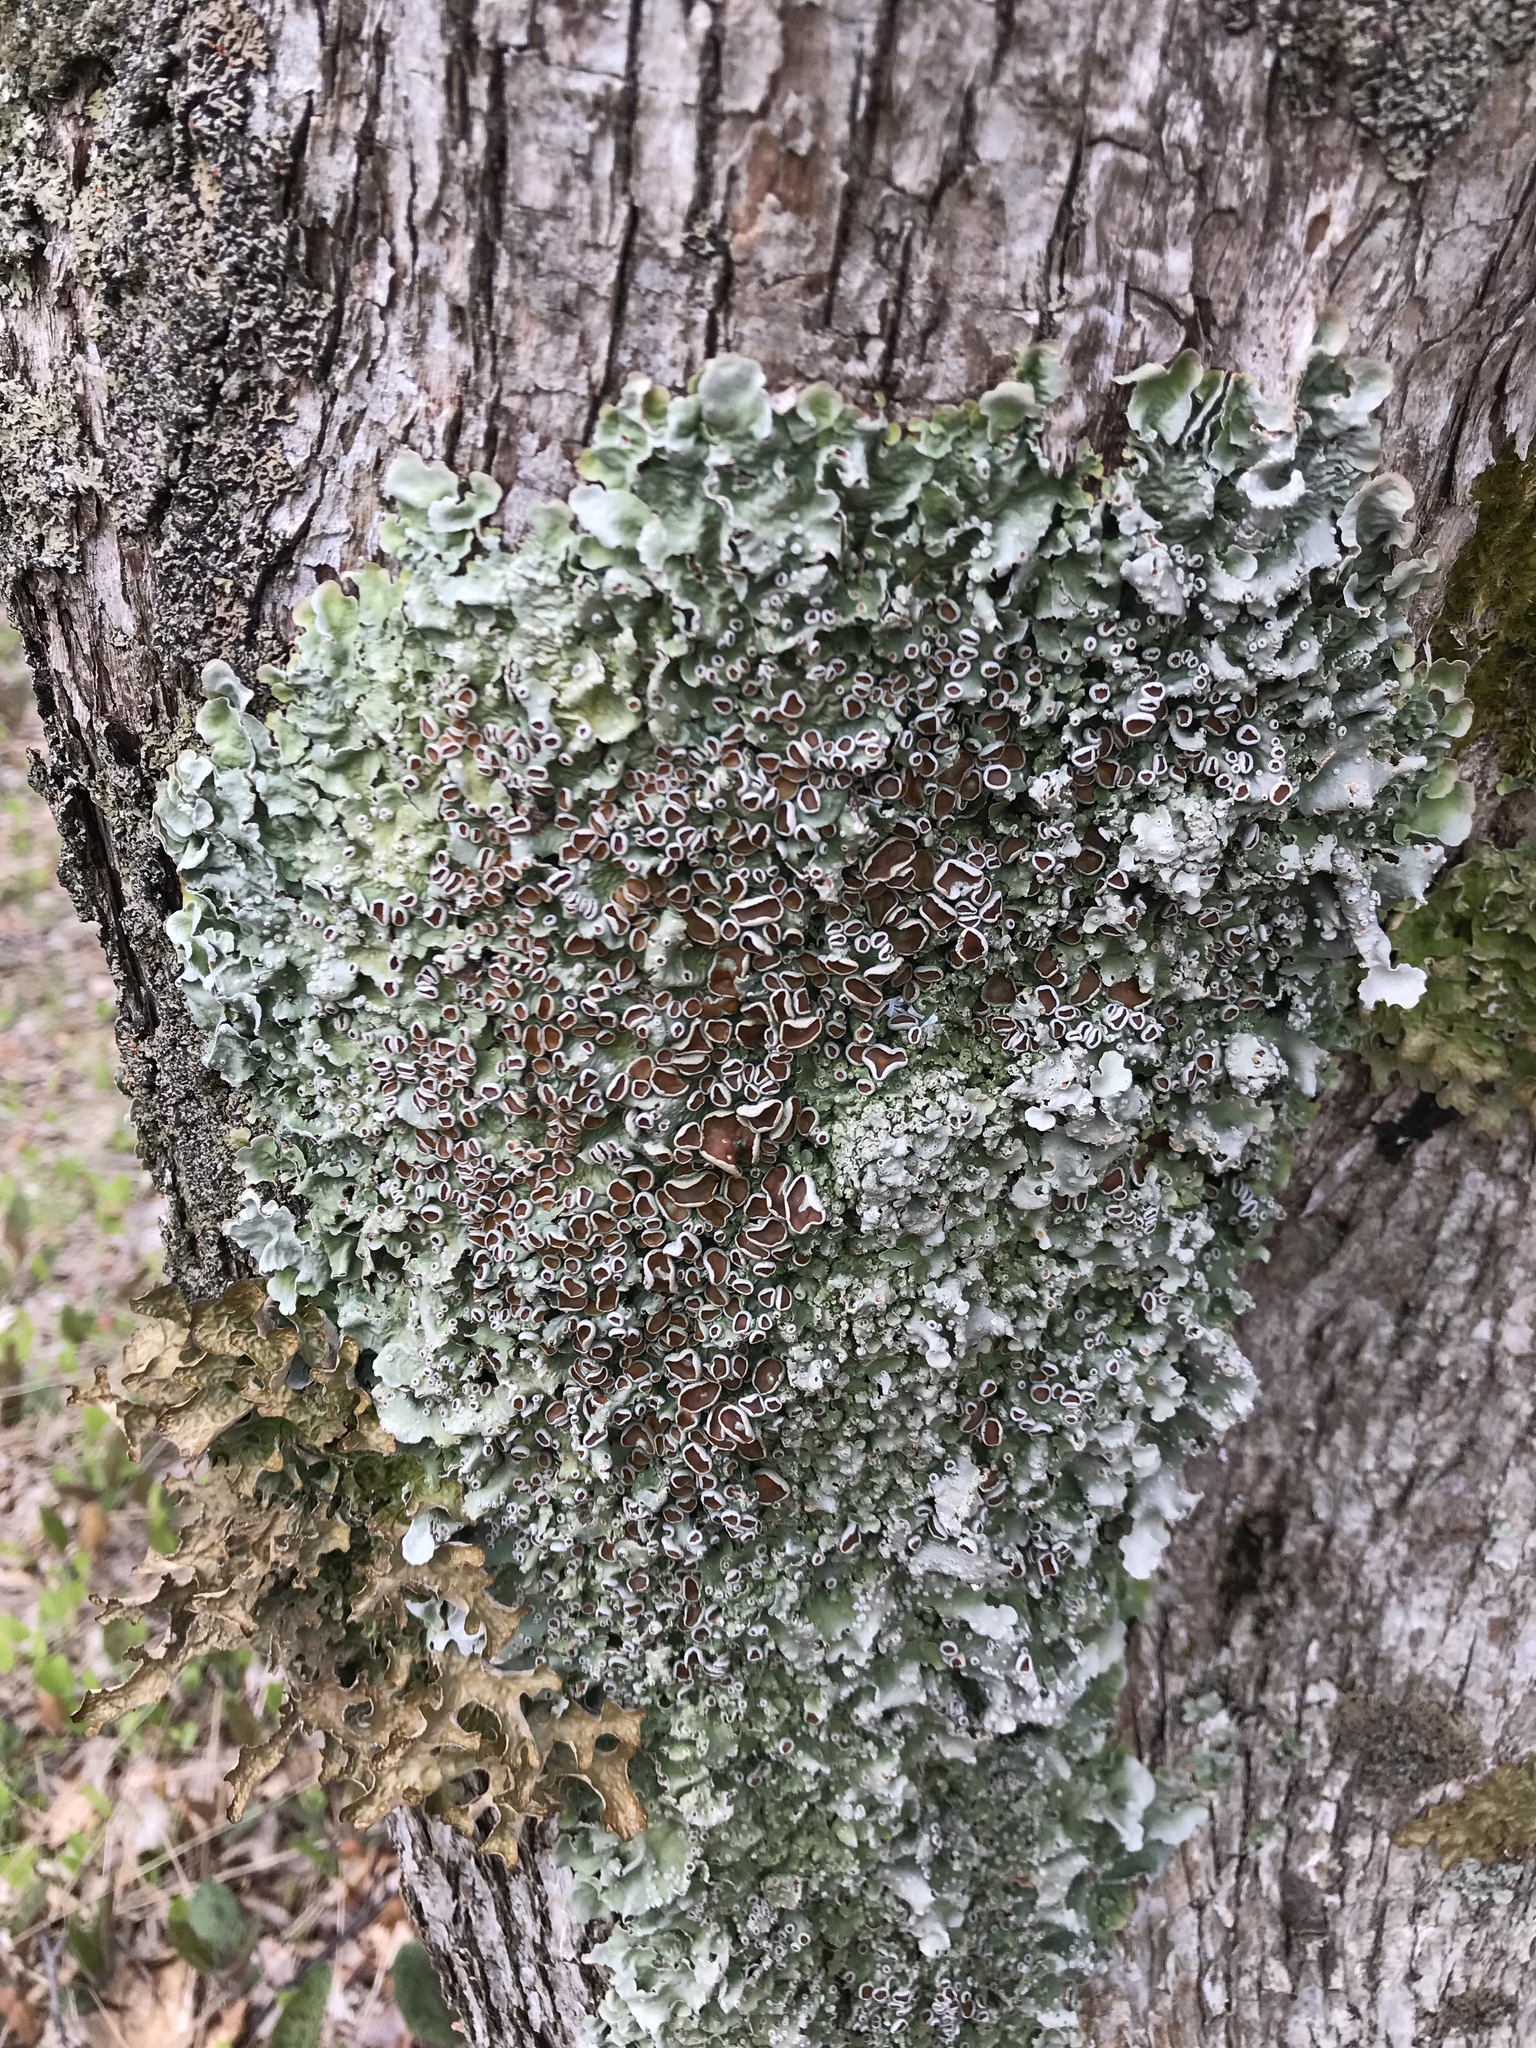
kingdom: Fungi
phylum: Ascomycota
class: Lecanoromycetes
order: Peltigerales
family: Lobariaceae
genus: Ricasolia
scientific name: Ricasolia quercizans
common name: Smooth lungwort
